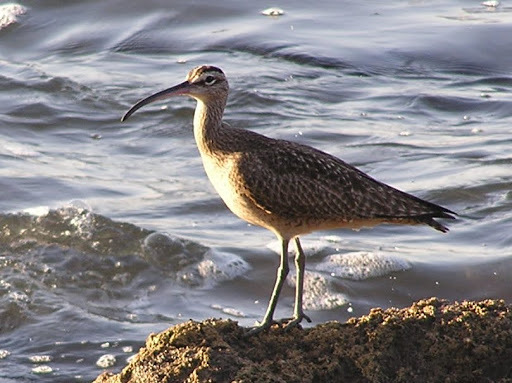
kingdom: Animalia
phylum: Chordata
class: Aves
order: Charadriiformes
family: Scolopacidae
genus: Numenius
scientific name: Numenius phaeopus
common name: Whimbrel
